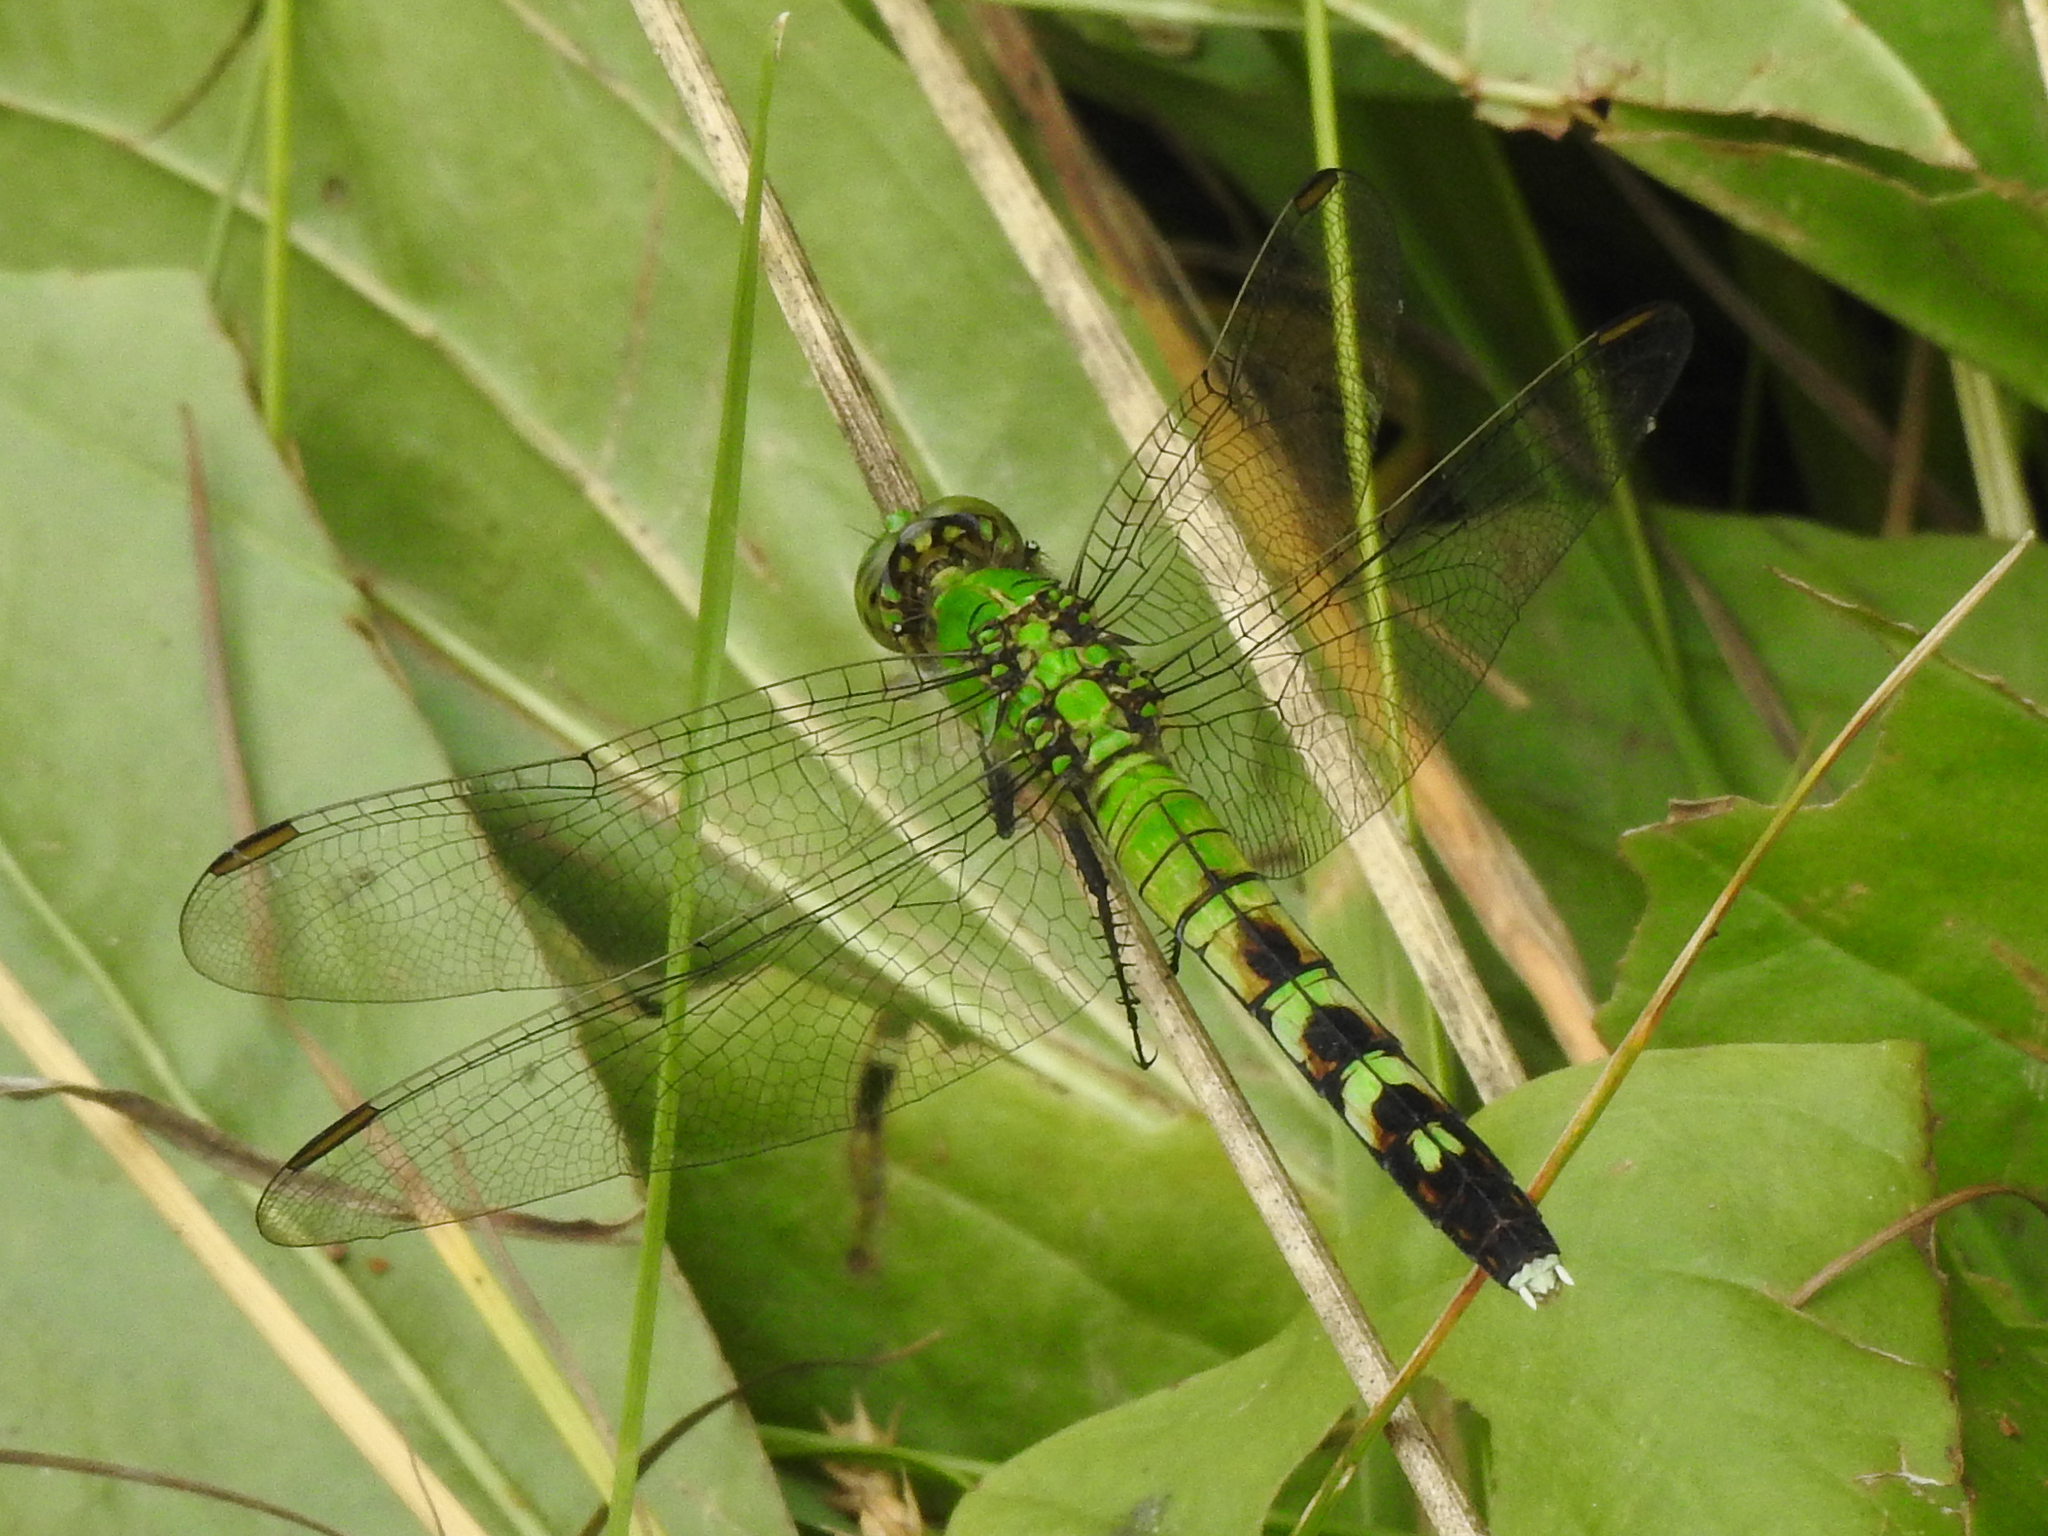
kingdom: Animalia
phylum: Arthropoda
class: Insecta
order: Odonata
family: Libellulidae
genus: Erythemis
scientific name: Erythemis simplicicollis
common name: Eastern pondhawk
